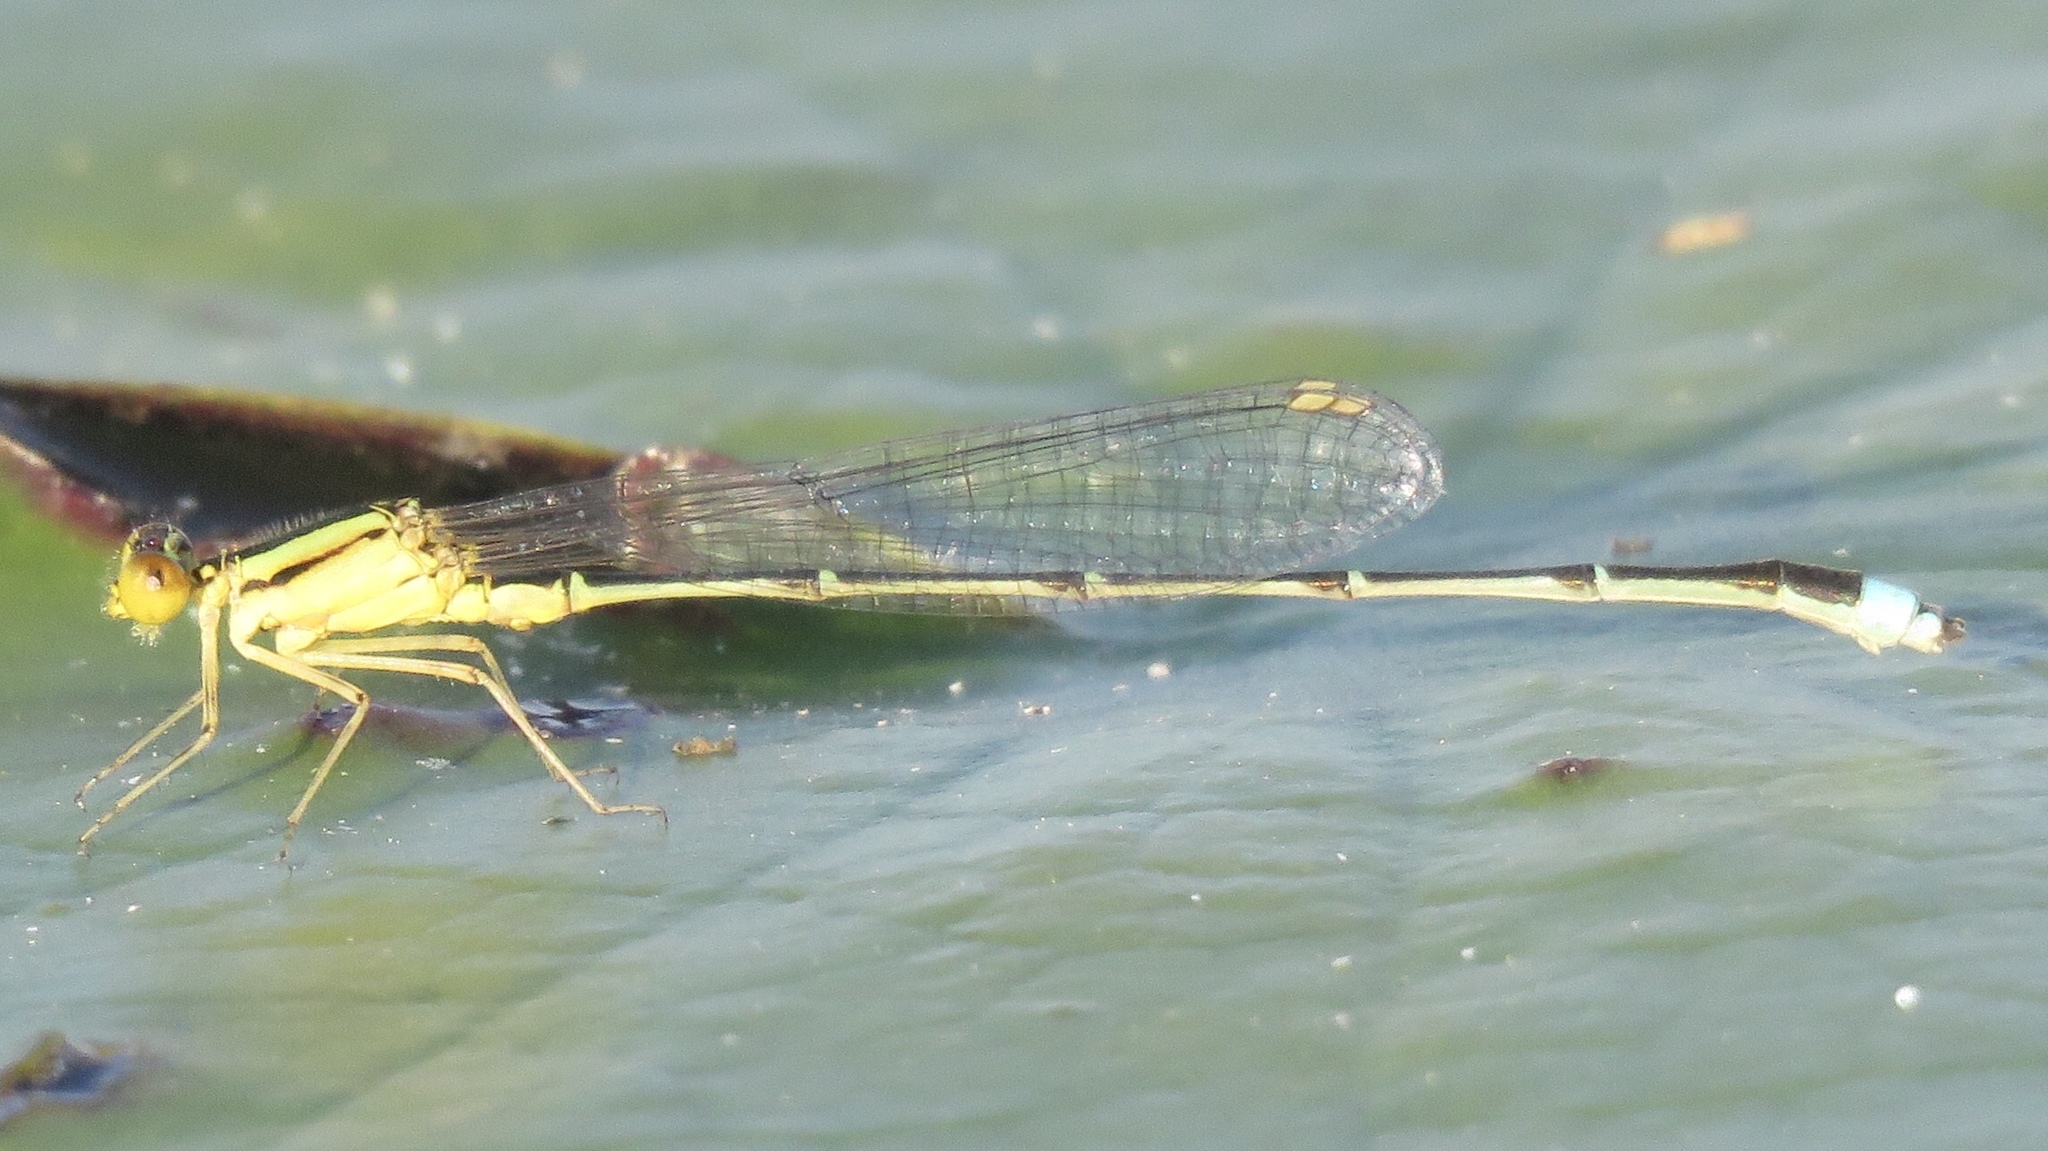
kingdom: Animalia
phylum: Arthropoda
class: Insecta
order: Odonata
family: Coenagrionidae
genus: Enallagma
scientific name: Enallagma vesperum
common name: Vesper bluet
